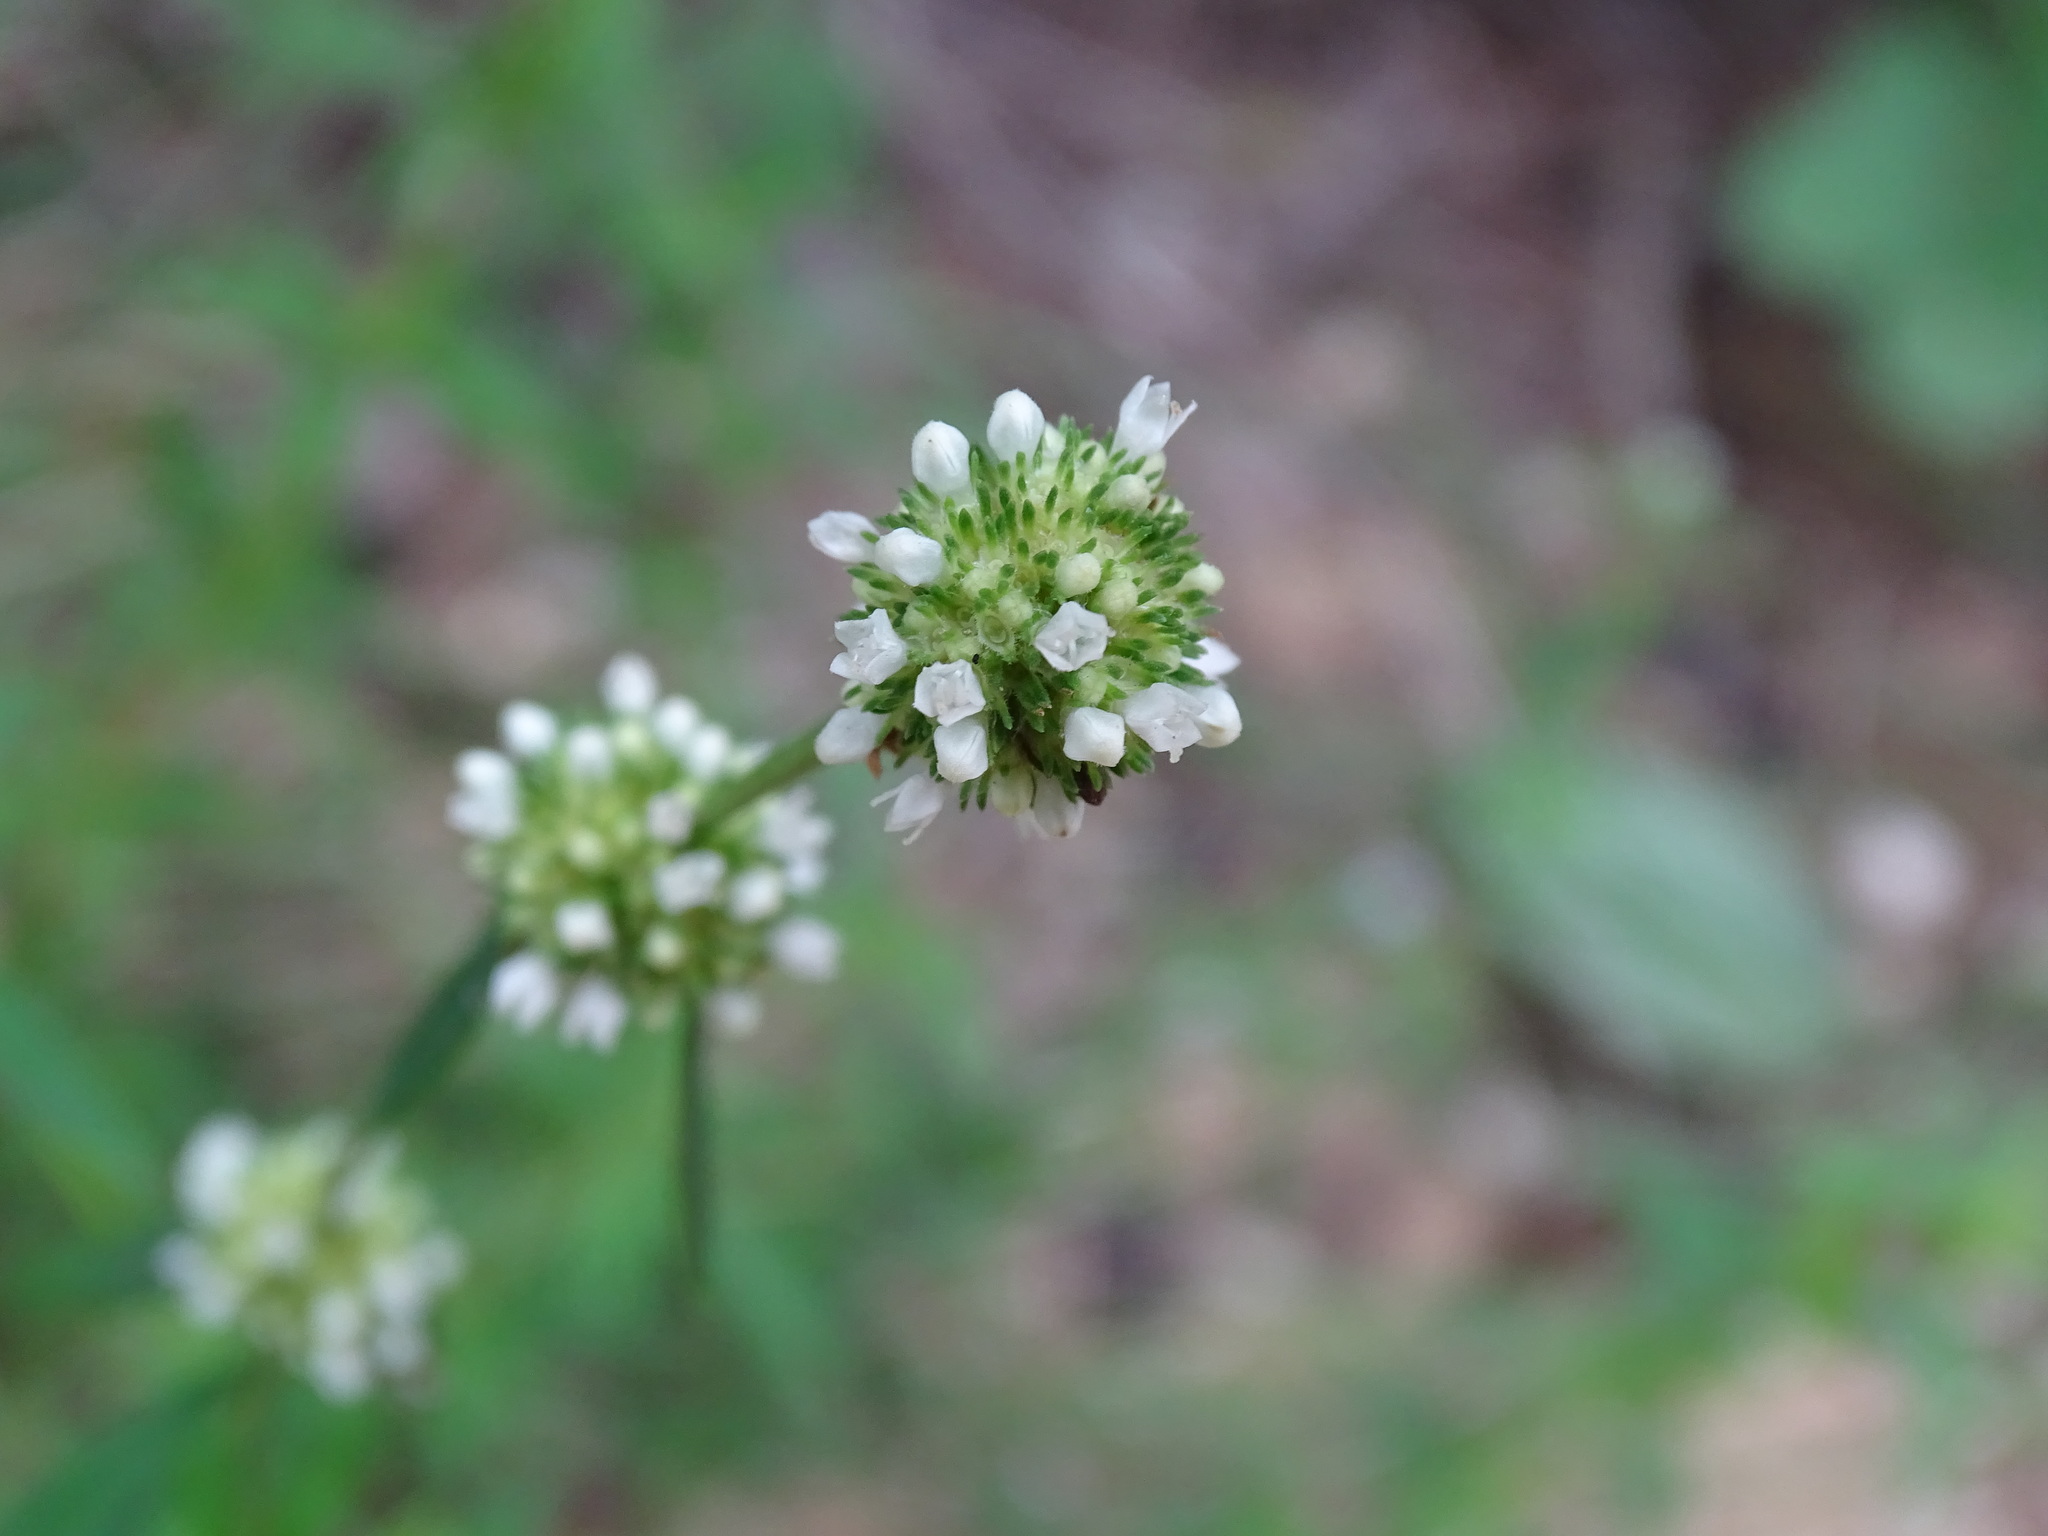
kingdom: Plantae
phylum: Tracheophyta
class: Magnoliopsida
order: Gentianales
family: Rubiaceae
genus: Spermacoce
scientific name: Spermacoce verticillata
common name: Shrubby false buttonweed
